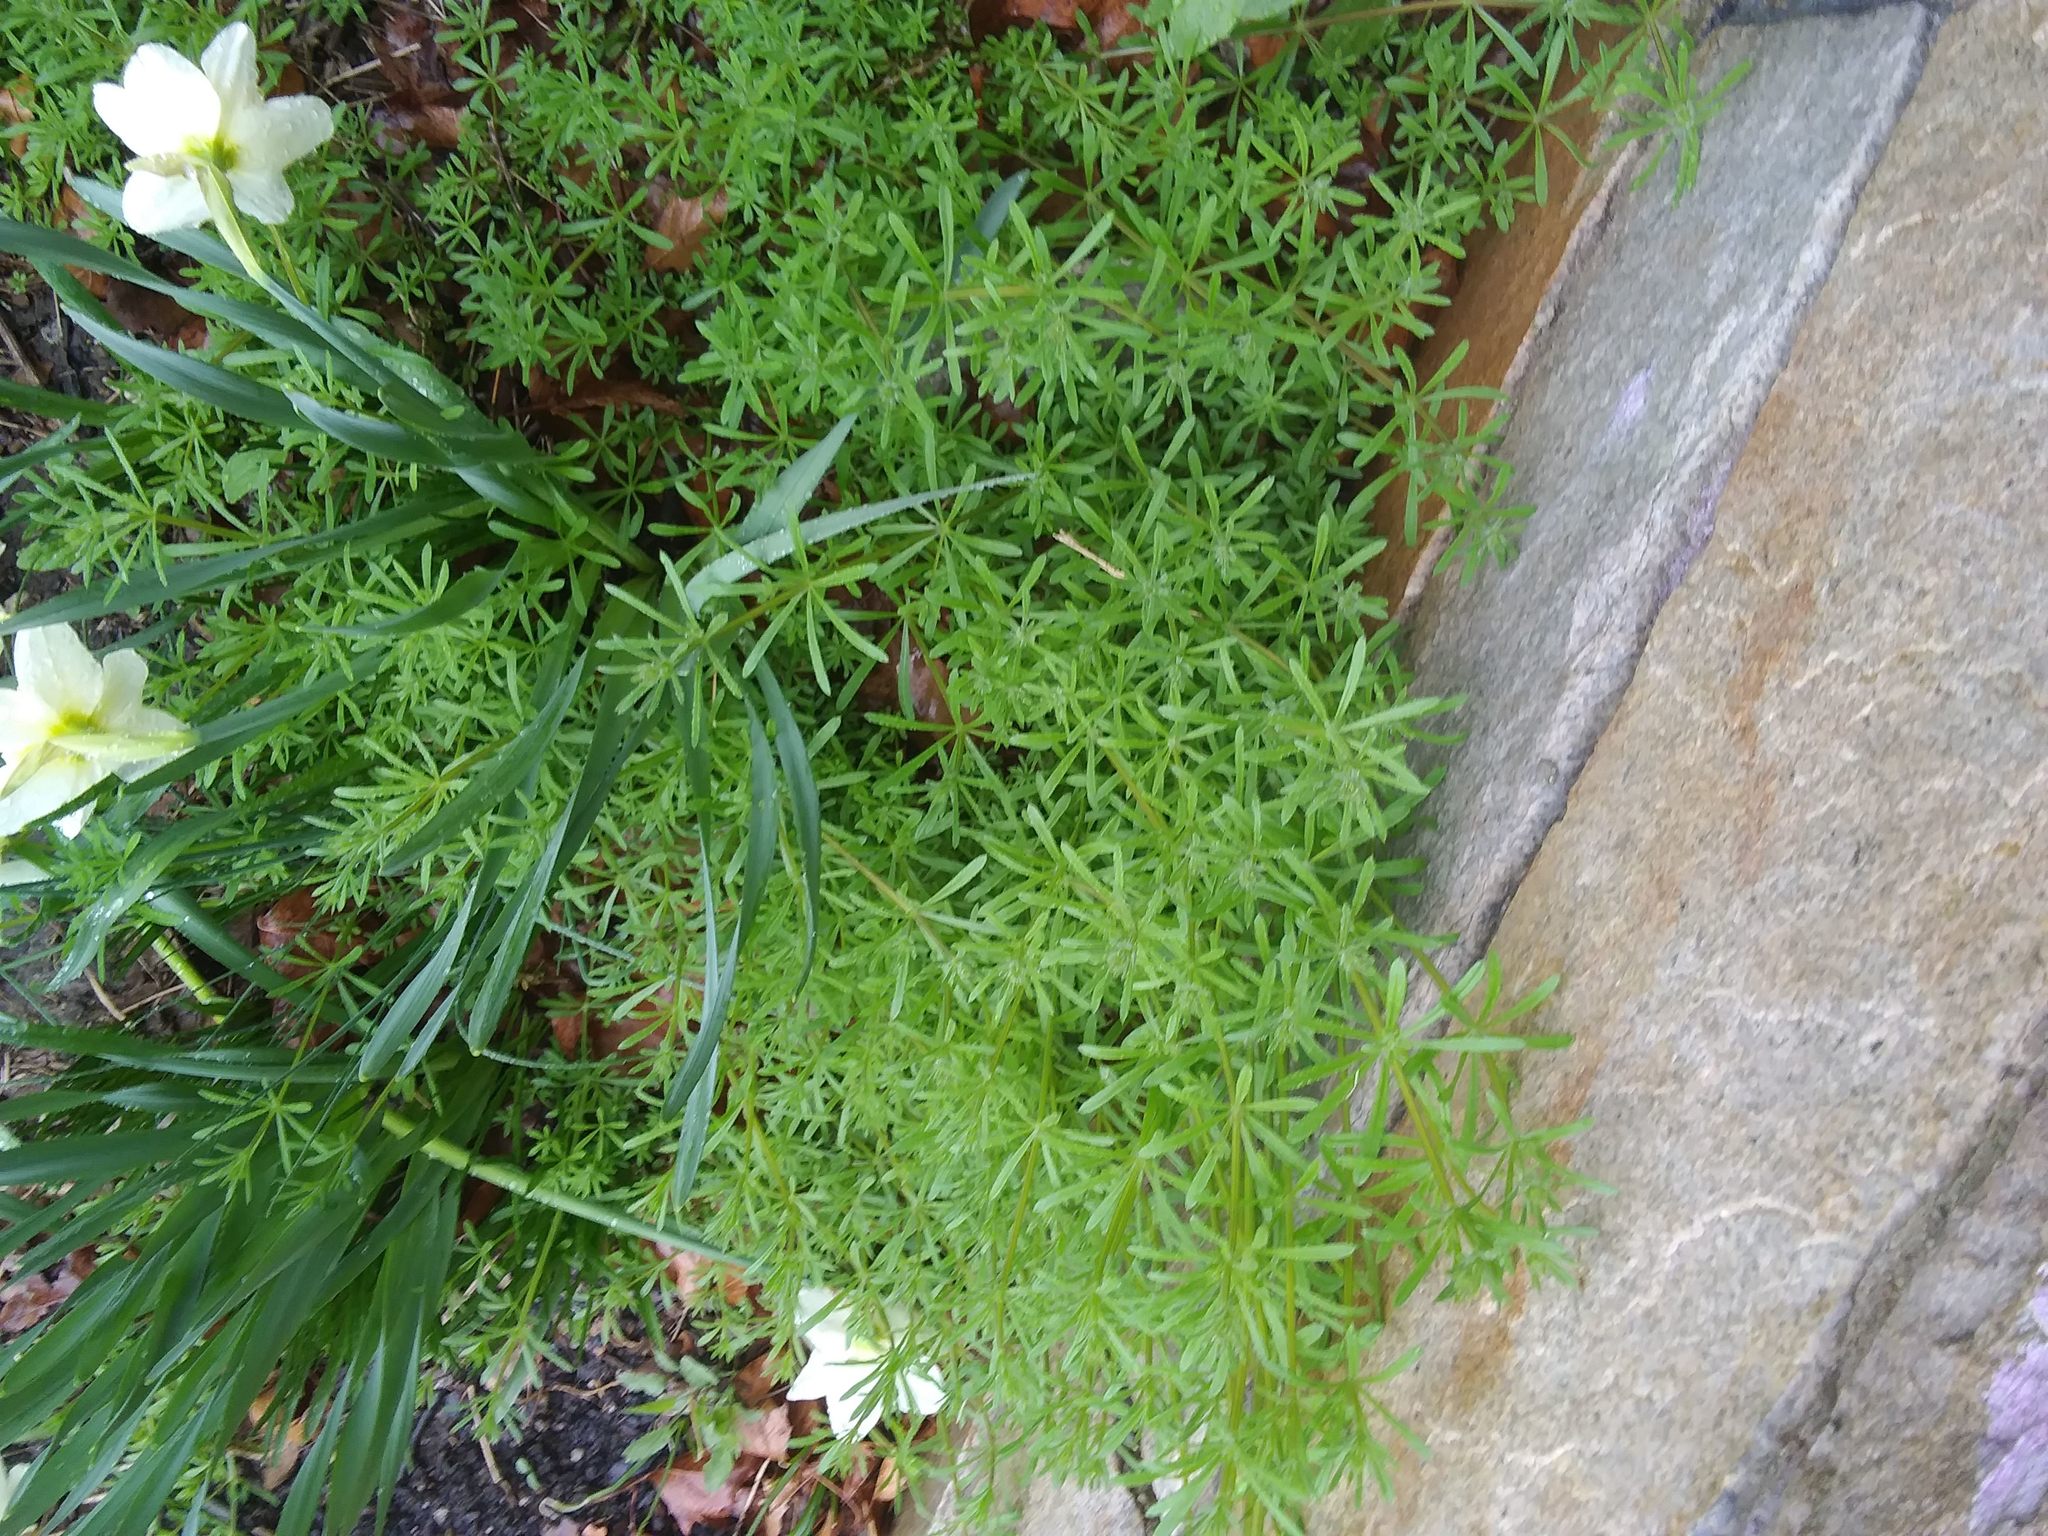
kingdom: Plantae
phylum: Tracheophyta
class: Magnoliopsida
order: Gentianales
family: Rubiaceae
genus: Galium
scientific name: Galium aparine
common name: Cleavers
